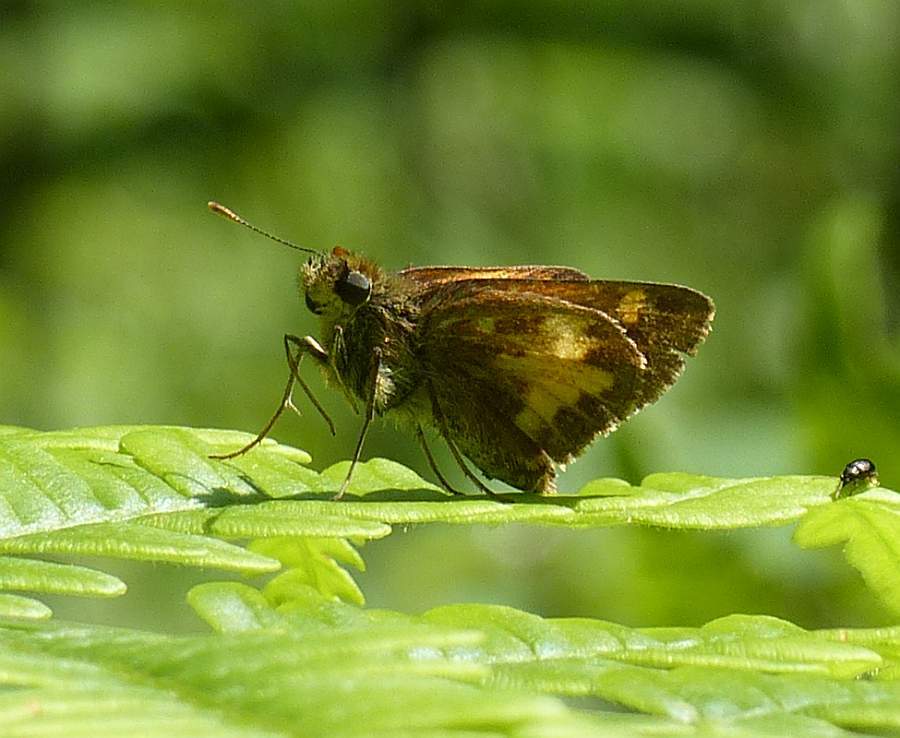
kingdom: Animalia
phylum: Arthropoda
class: Insecta
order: Lepidoptera
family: Hesperiidae
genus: Lon
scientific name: Lon hobomok
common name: Hobomok skipper
